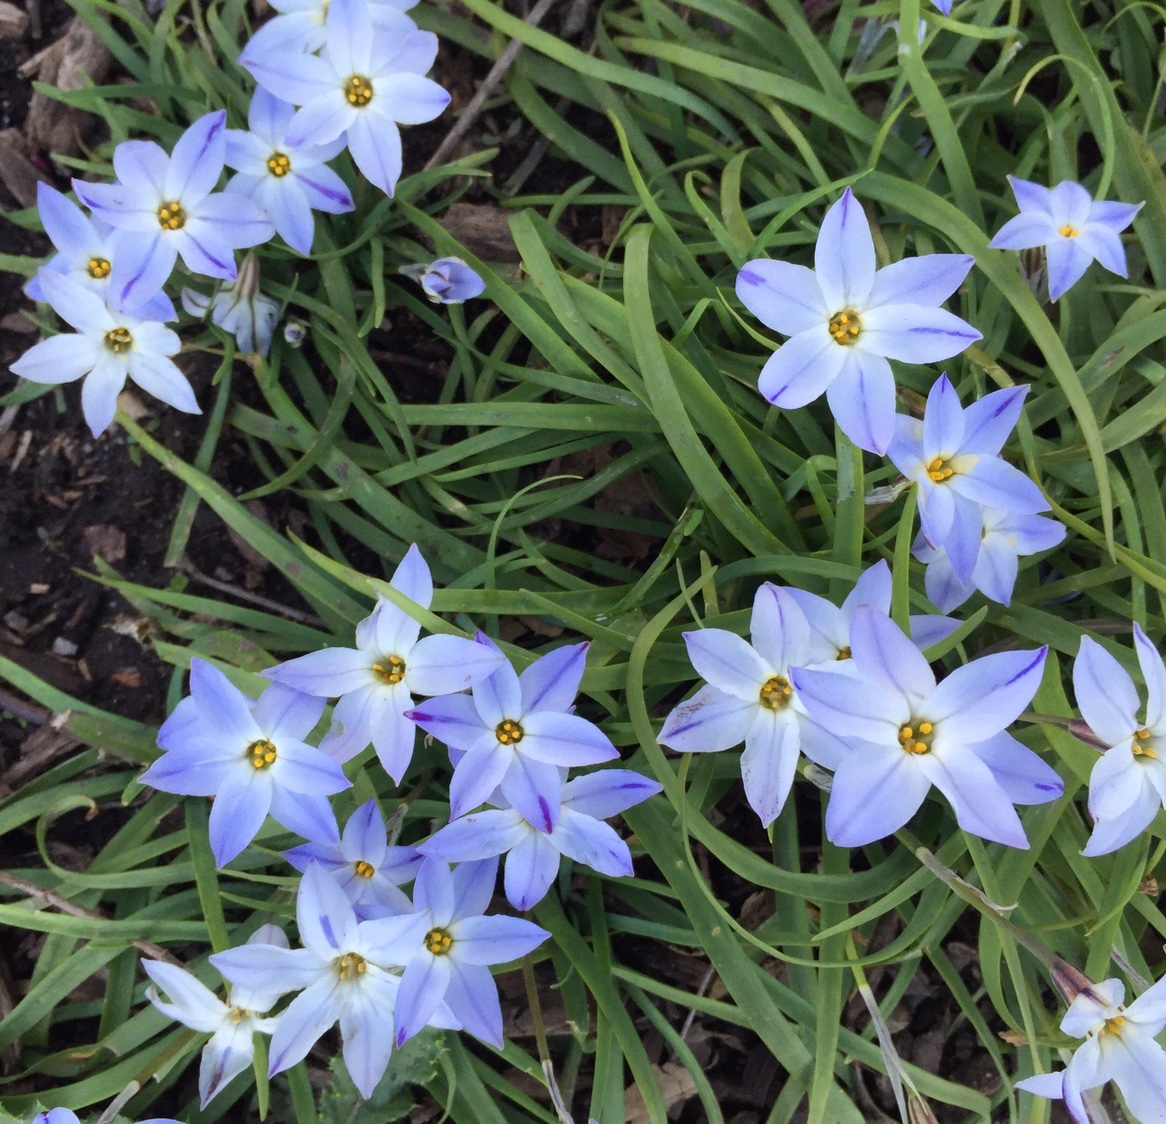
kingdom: Plantae
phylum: Tracheophyta
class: Liliopsida
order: Asparagales
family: Amaryllidaceae
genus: Ipheion
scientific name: Ipheion uniflorum
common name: Spring starflower
